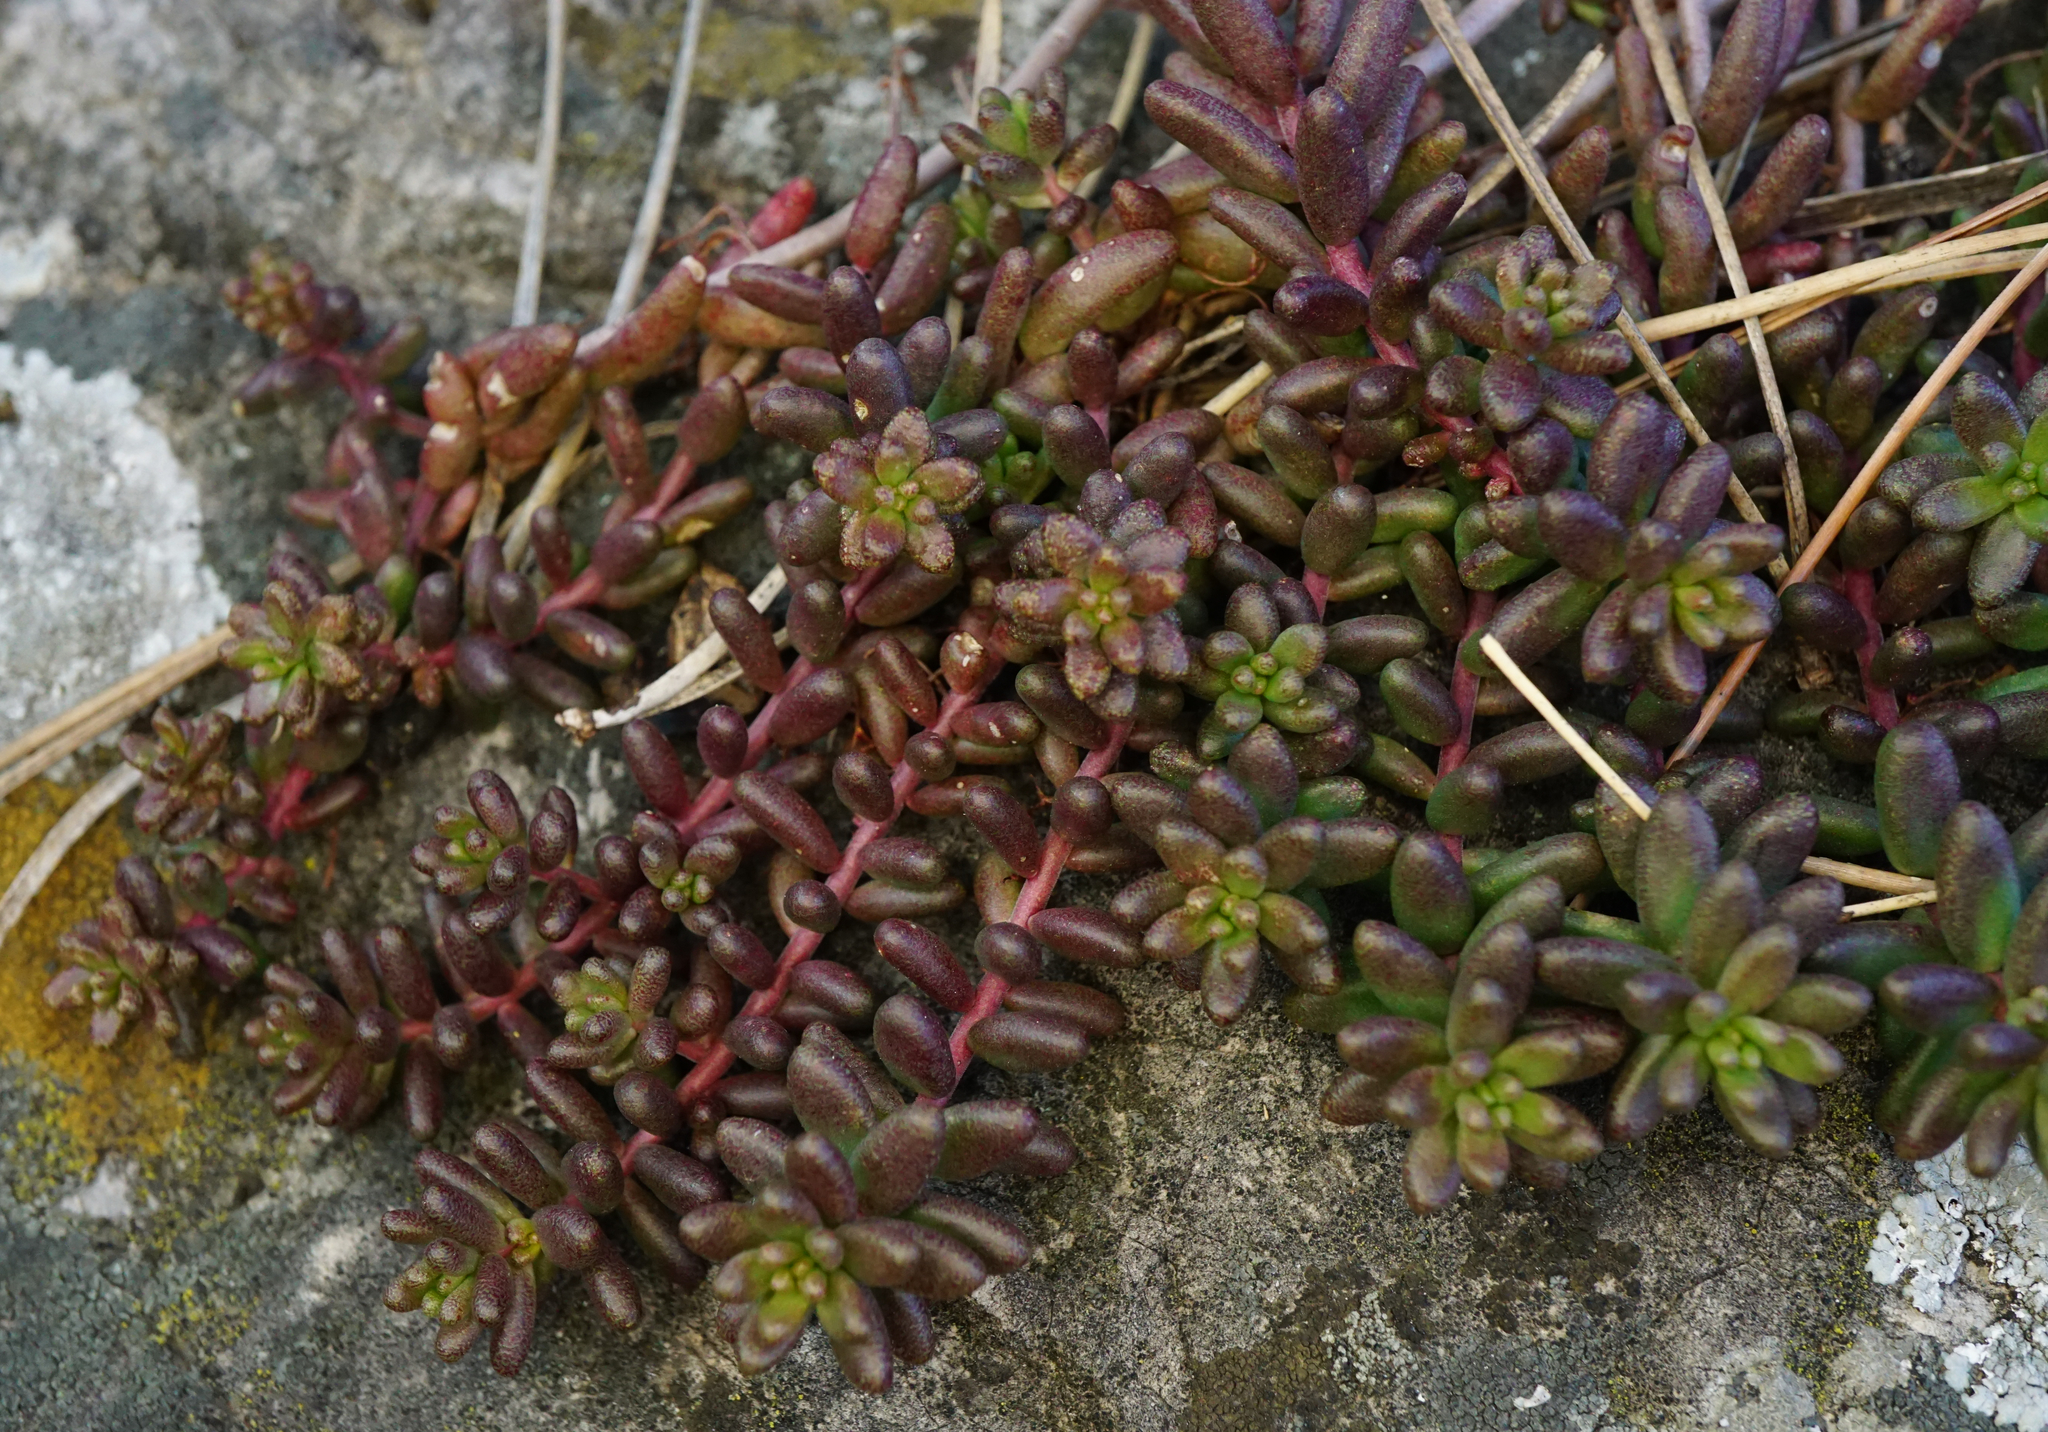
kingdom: Plantae
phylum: Tracheophyta
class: Magnoliopsida
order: Saxifragales
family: Crassulaceae
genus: Sedum
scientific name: Sedum album
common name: White stonecrop
